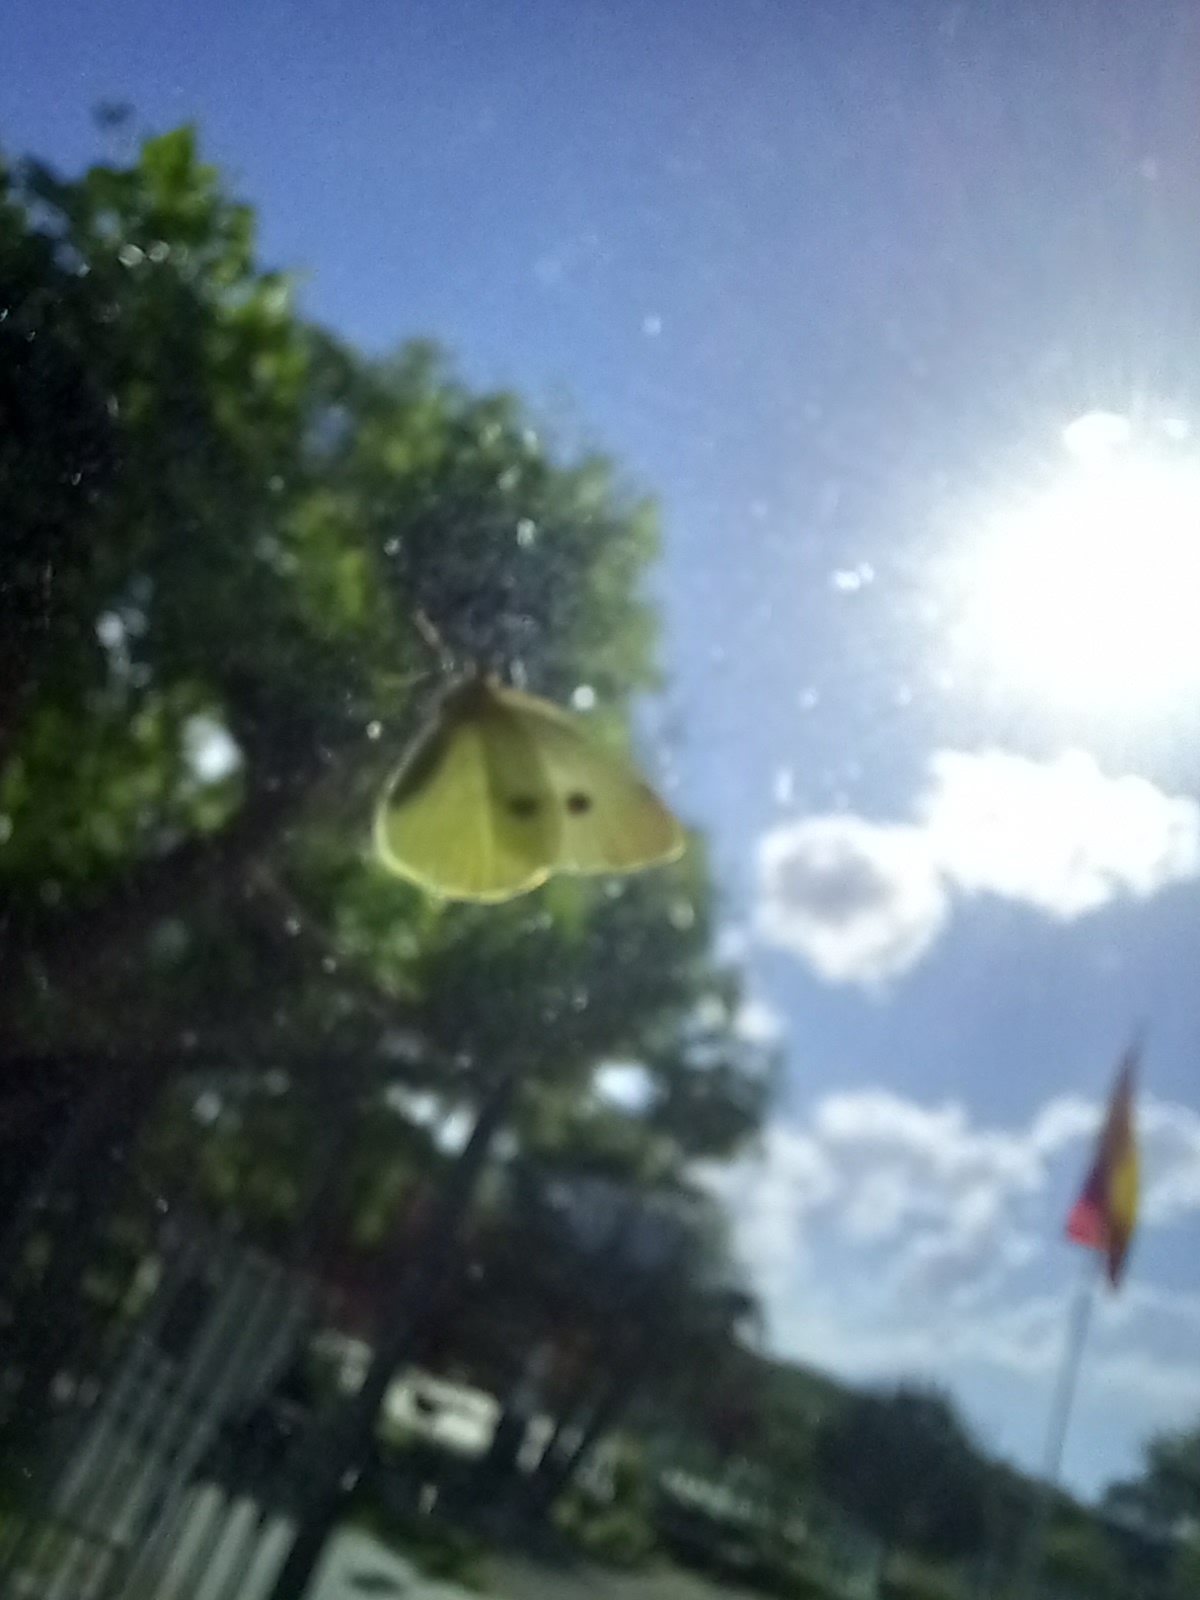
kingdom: Animalia
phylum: Arthropoda
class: Insecta
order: Lepidoptera
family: Pieridae
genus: Pieris
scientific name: Pieris rapae
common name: Small white
